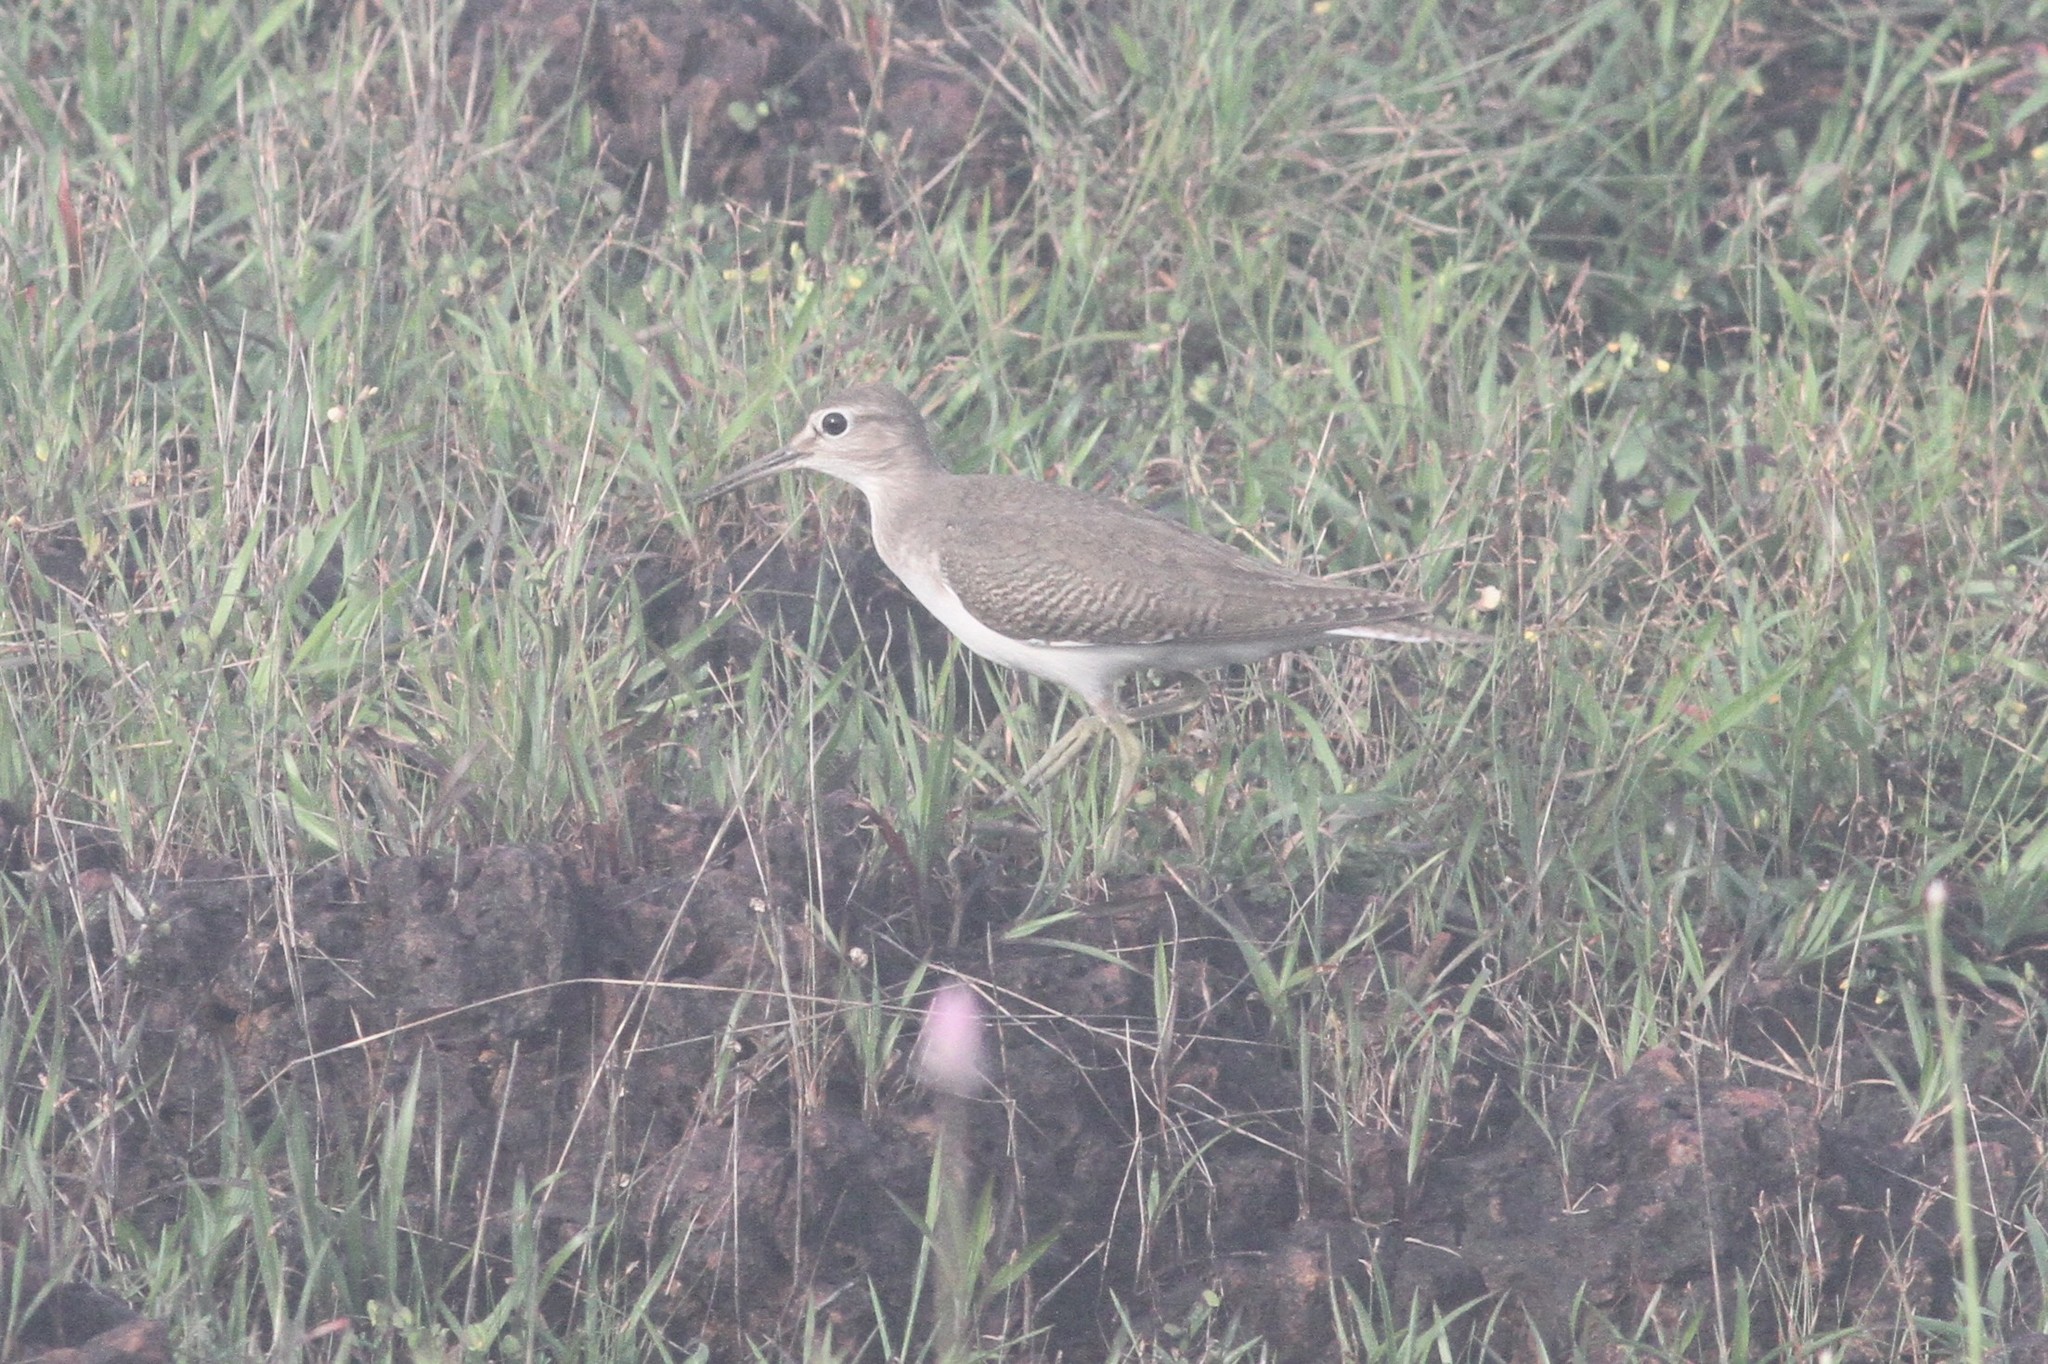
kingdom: Animalia
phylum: Chordata
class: Aves
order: Charadriiformes
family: Scolopacidae
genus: Actitis
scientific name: Actitis hypoleucos
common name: Common sandpiper
